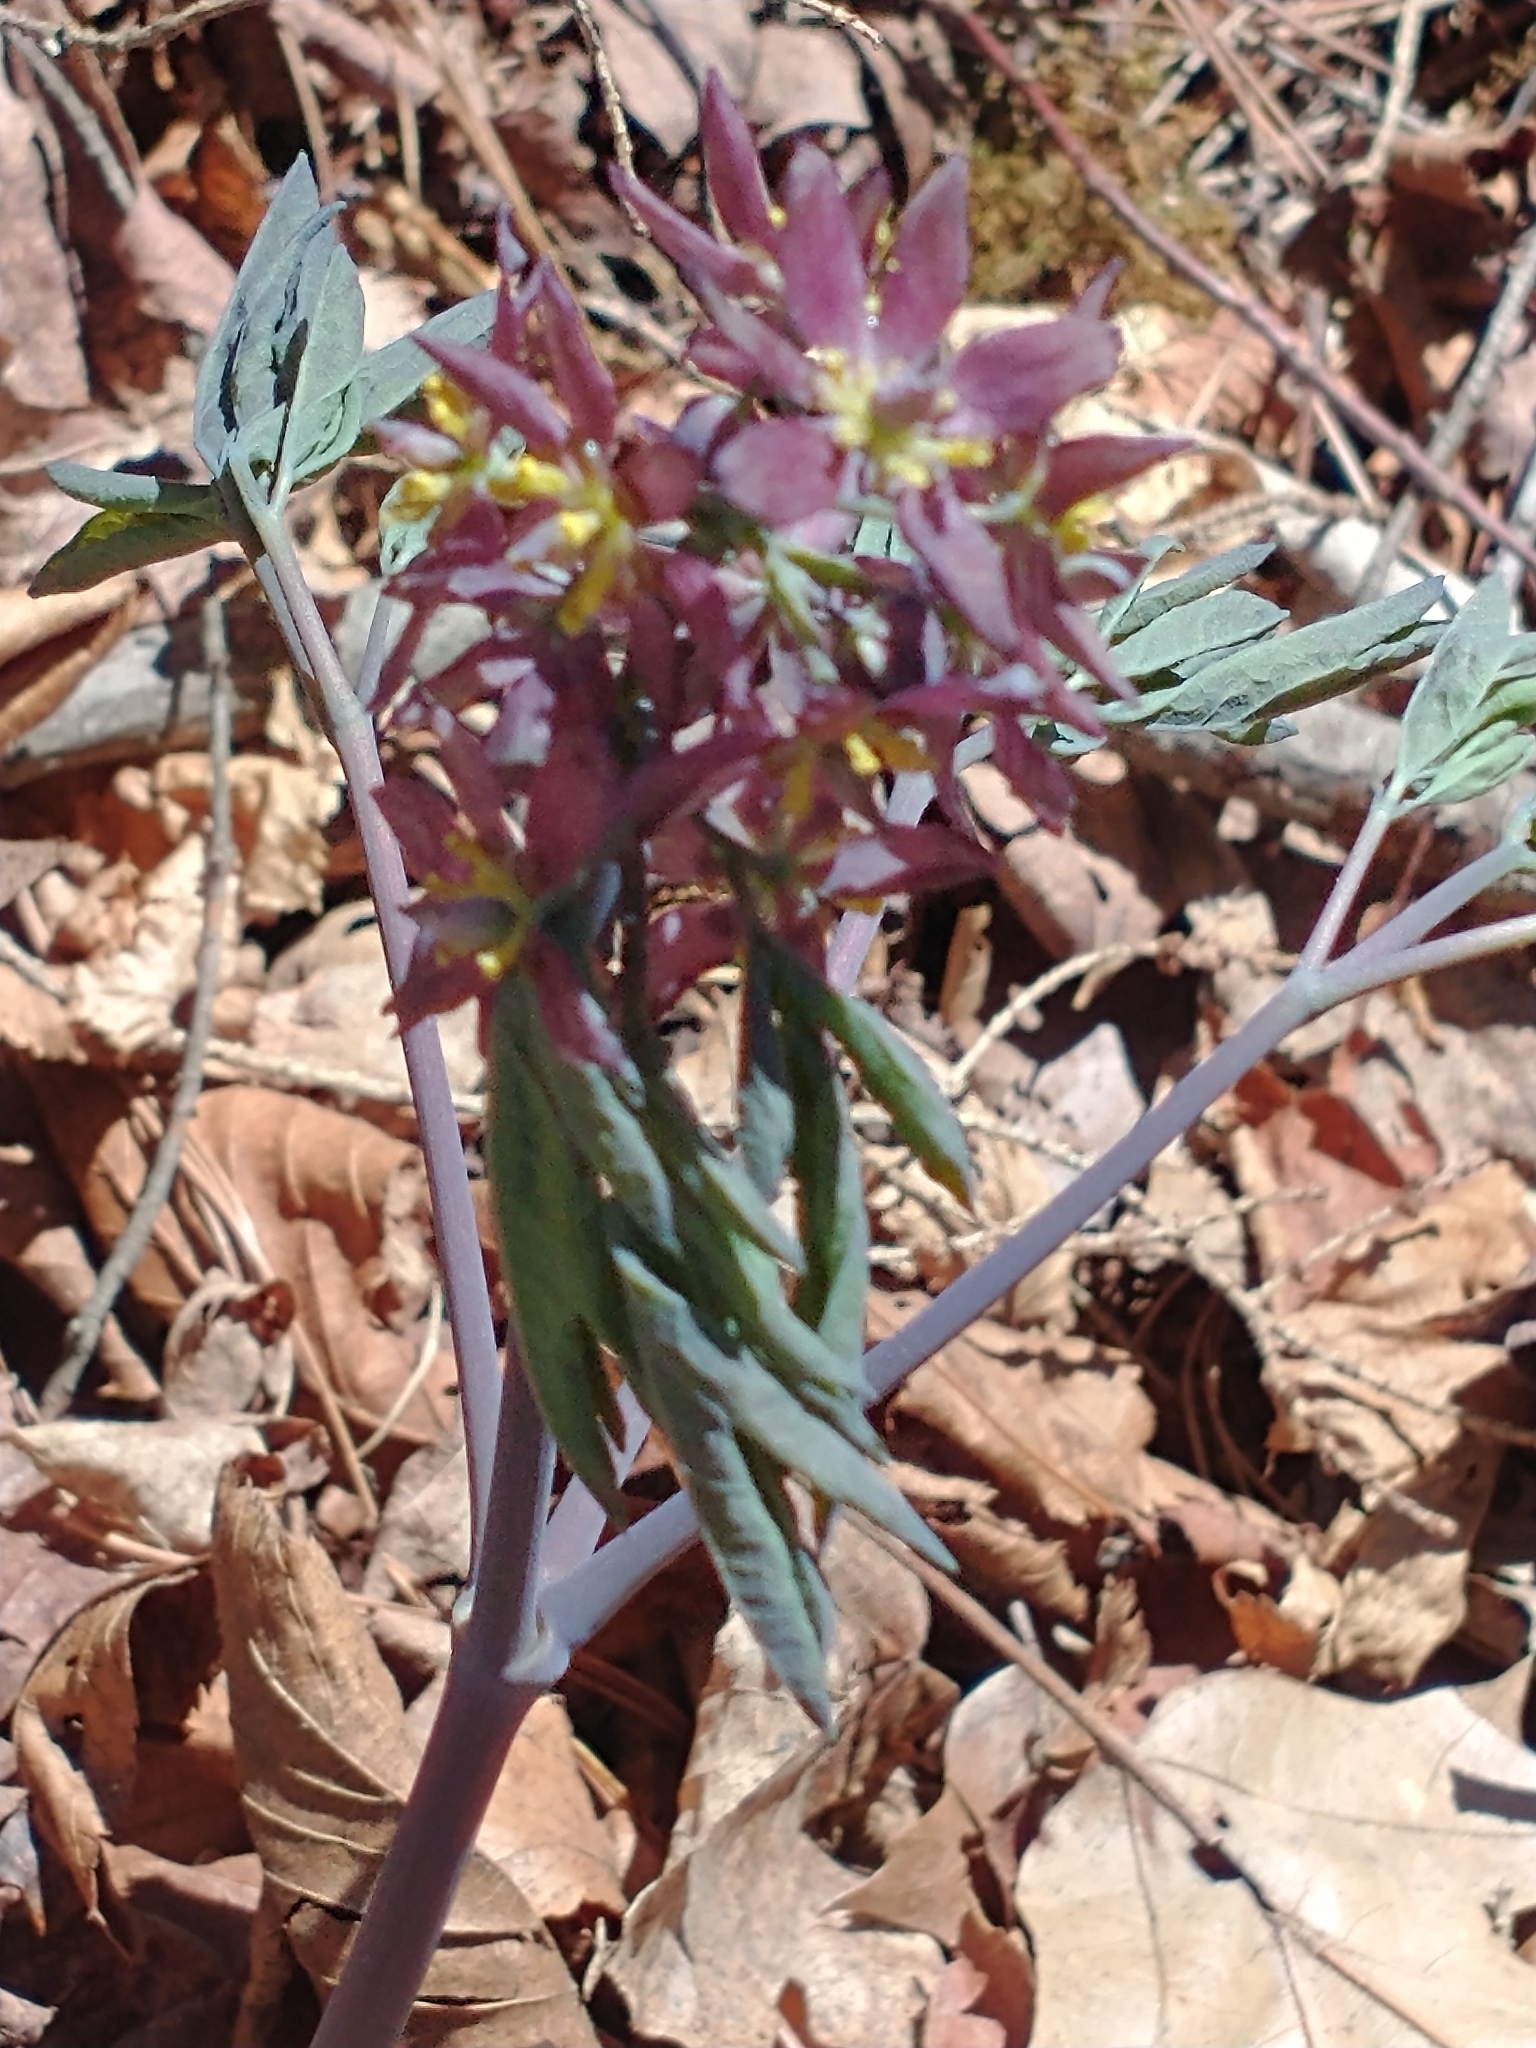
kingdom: Plantae
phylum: Tracheophyta
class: Magnoliopsida
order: Ranunculales
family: Berberidaceae
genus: Caulophyllum
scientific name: Caulophyllum giganteum
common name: Blue cohosh
